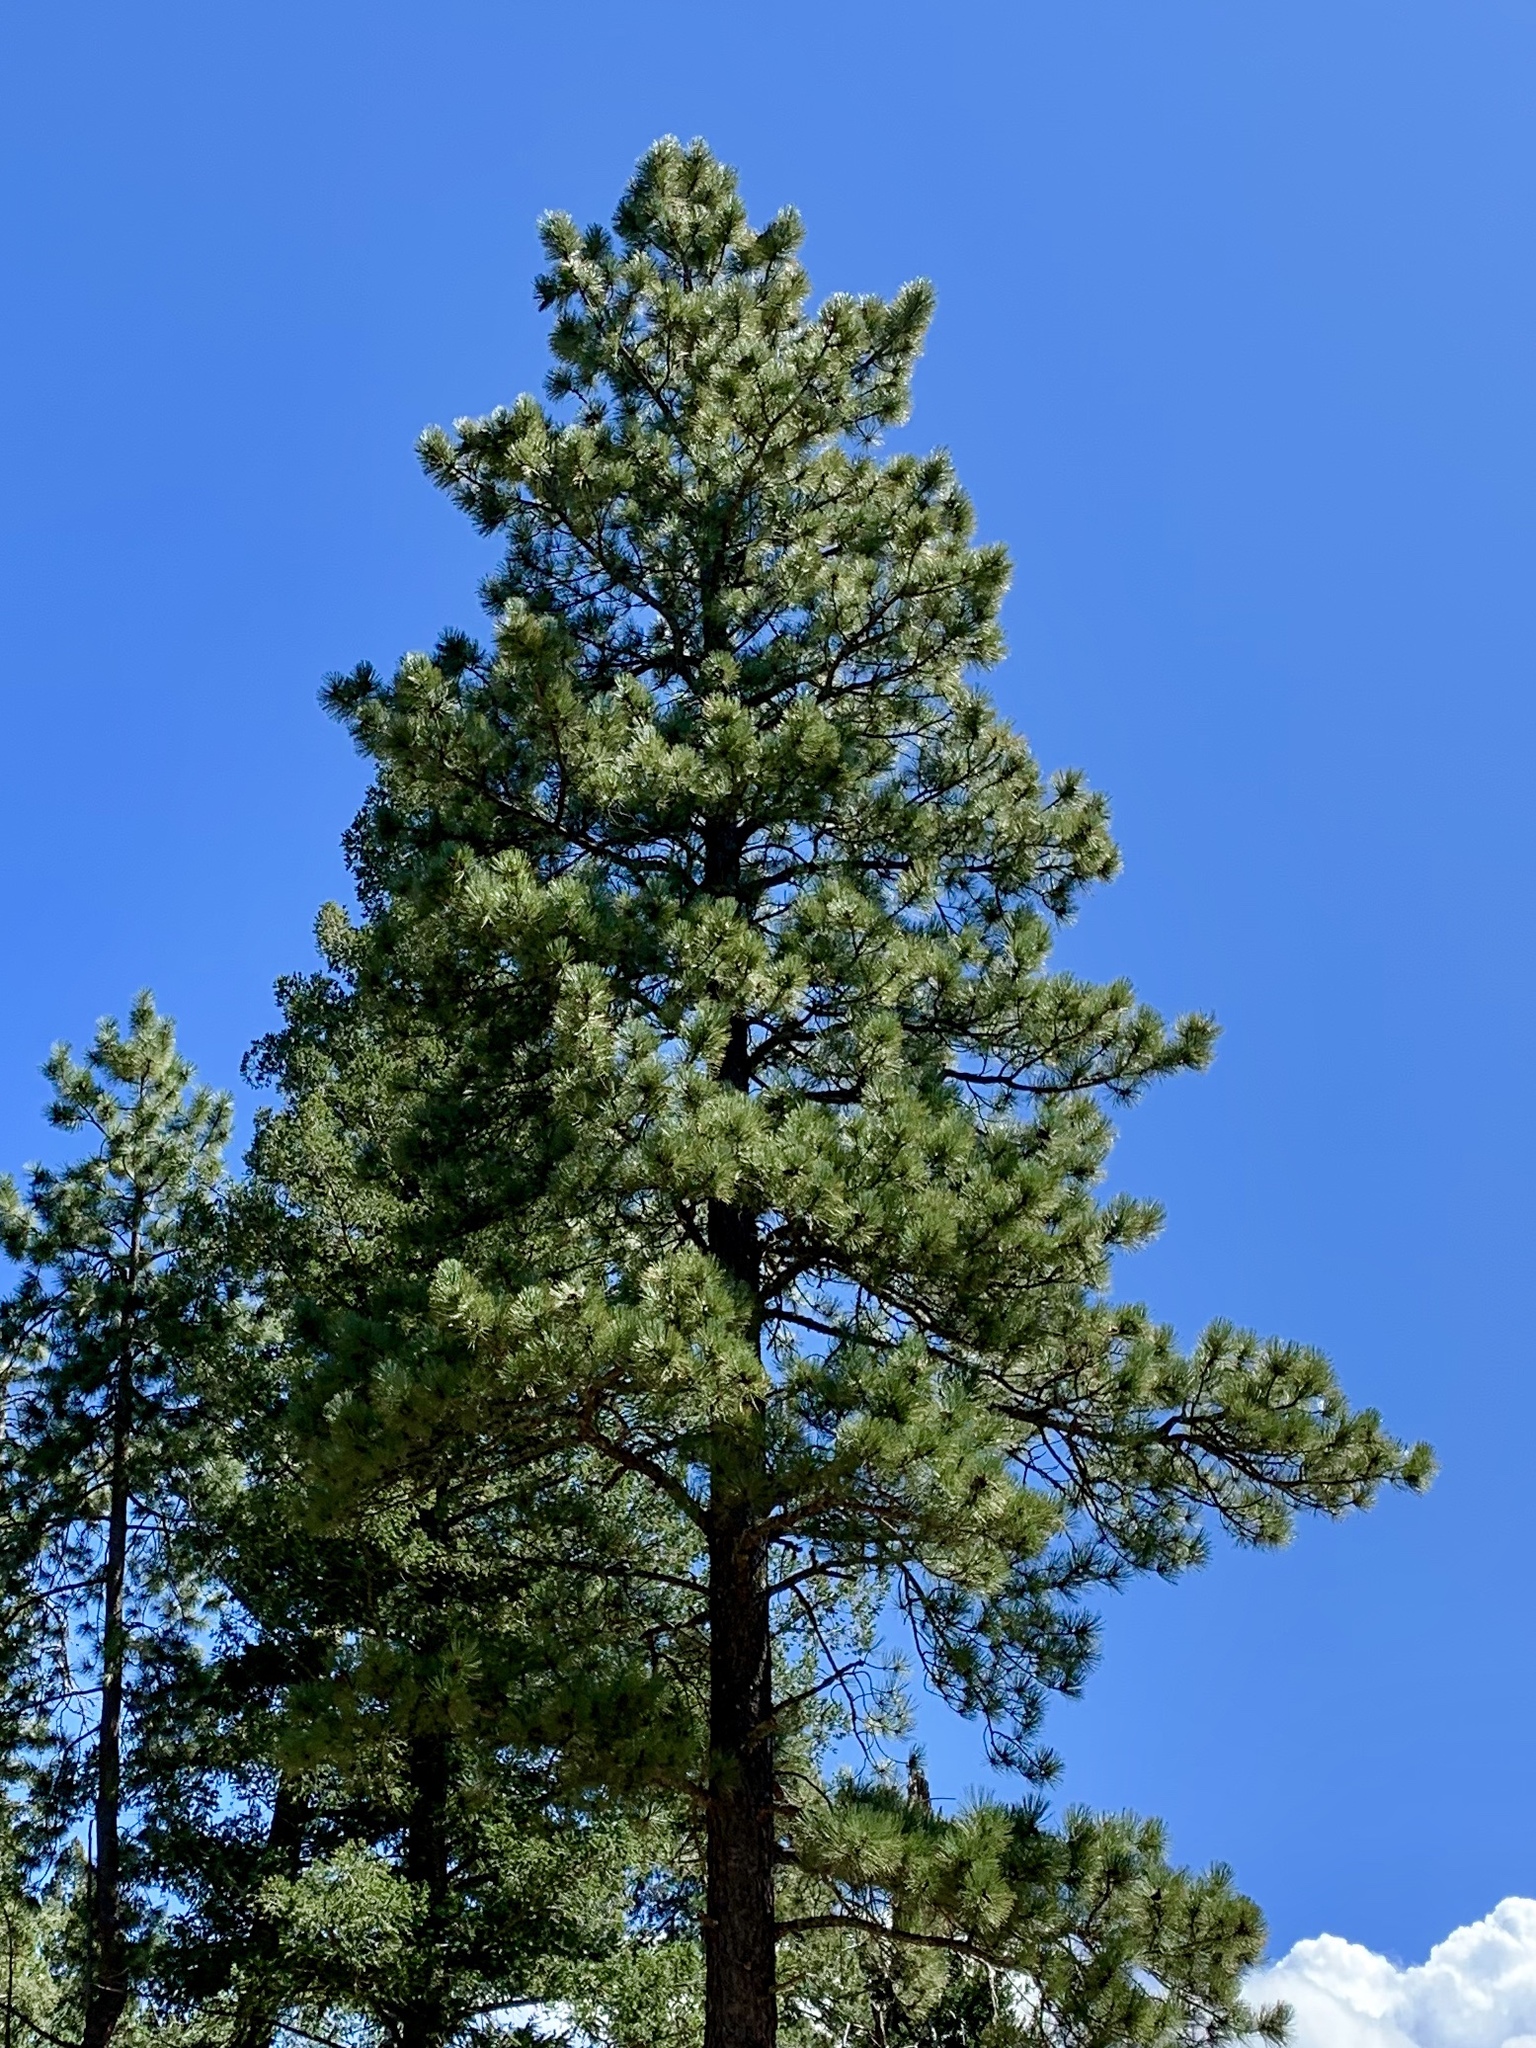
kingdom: Plantae
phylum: Tracheophyta
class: Pinopsida
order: Pinales
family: Pinaceae
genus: Pinus
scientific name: Pinus ponderosa
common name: Western yellow-pine
